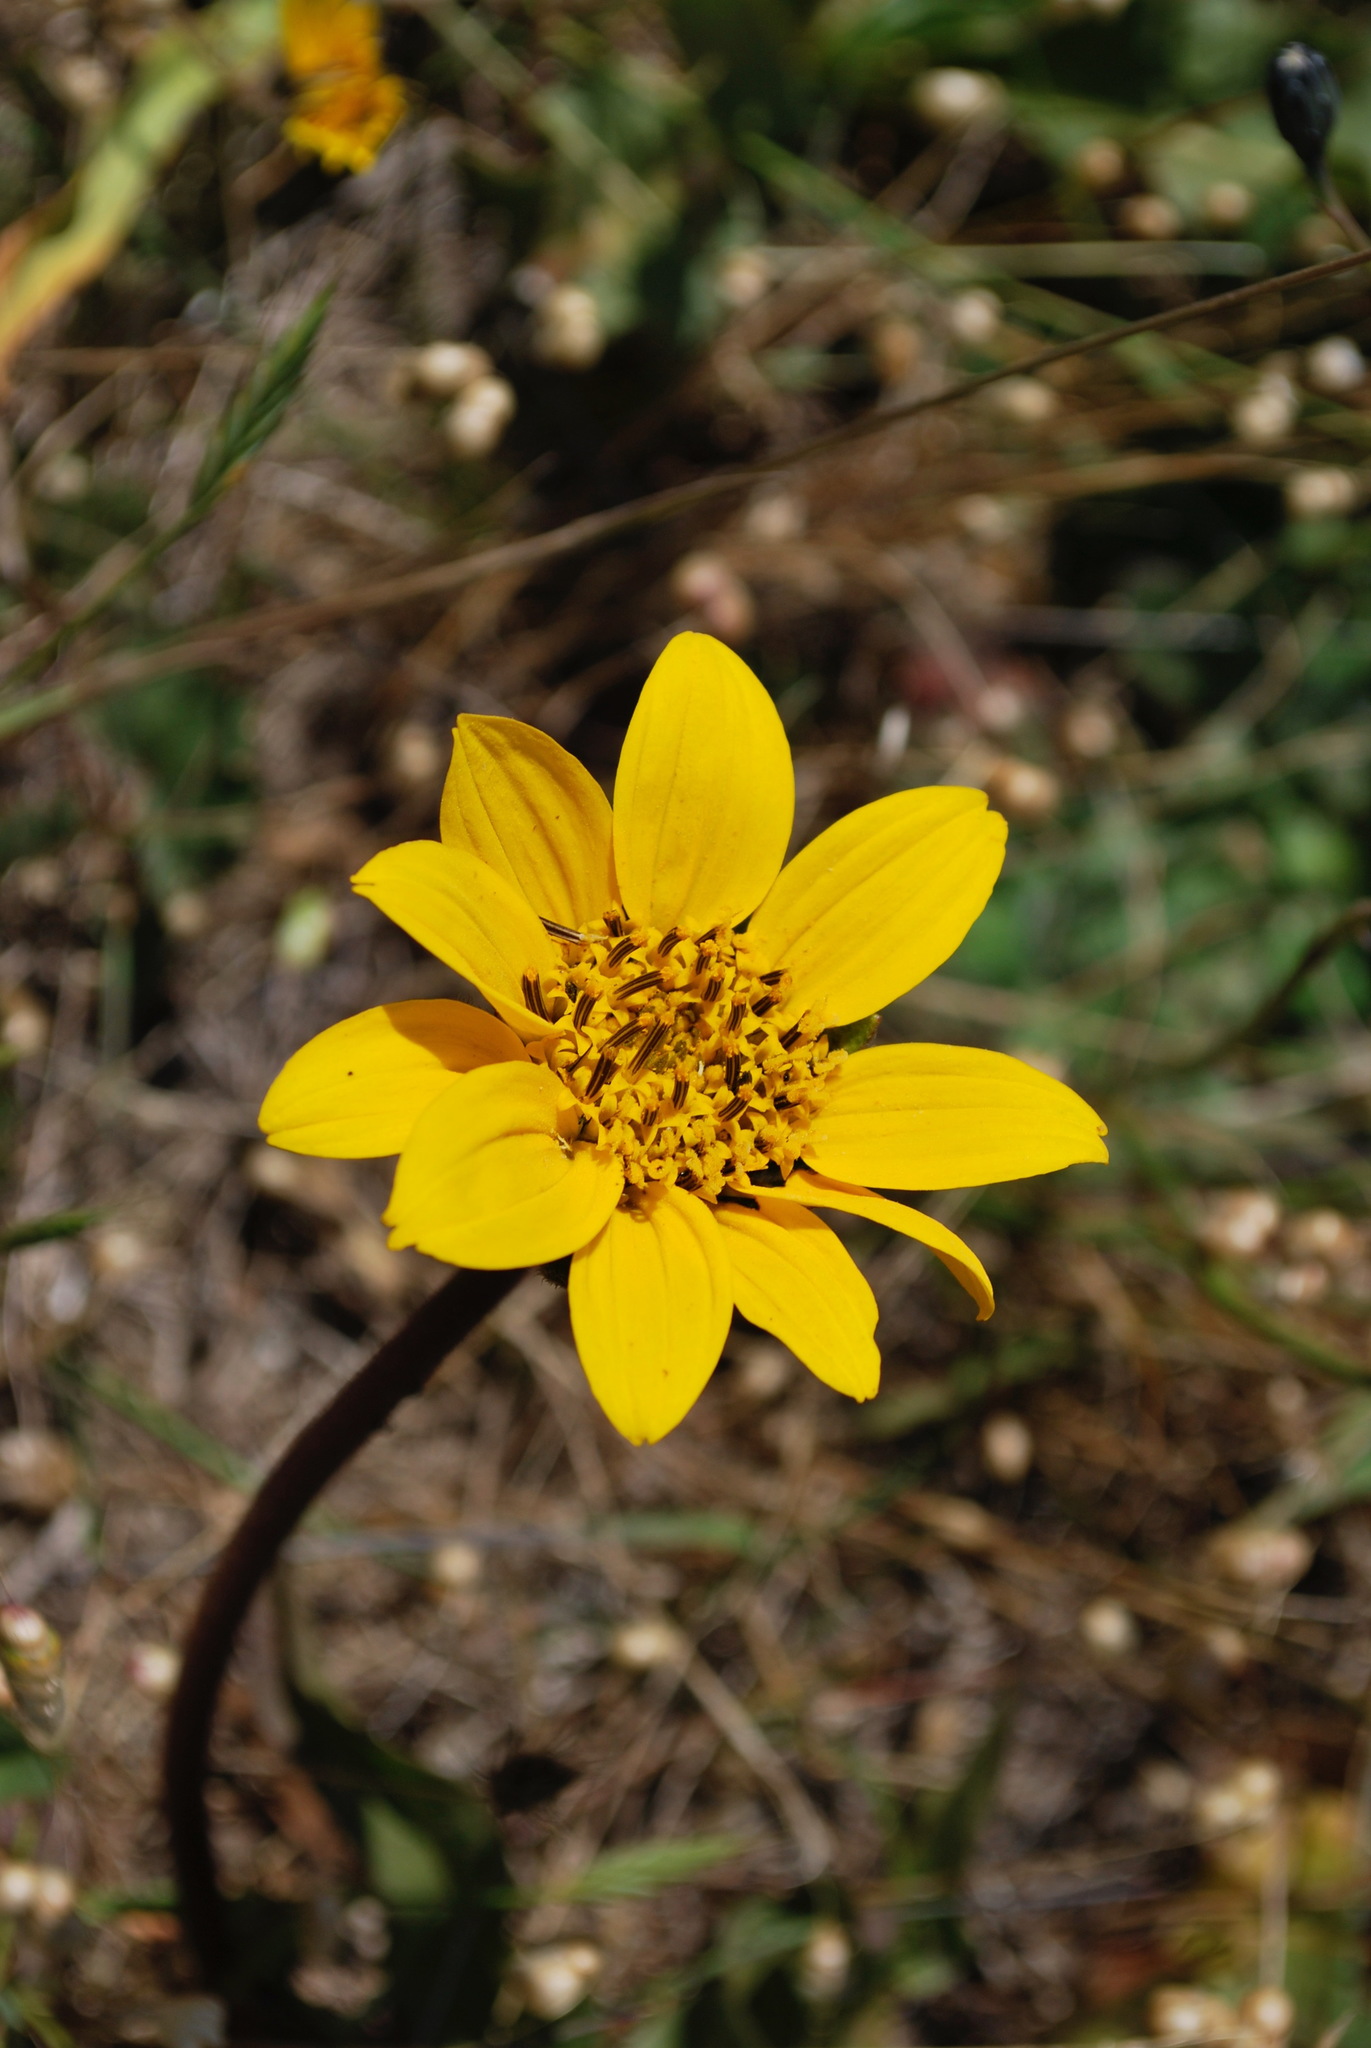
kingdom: Plantae
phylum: Tracheophyta
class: Magnoliopsida
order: Asterales
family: Asteraceae
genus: Wyethia
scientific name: Wyethia angustifolia
